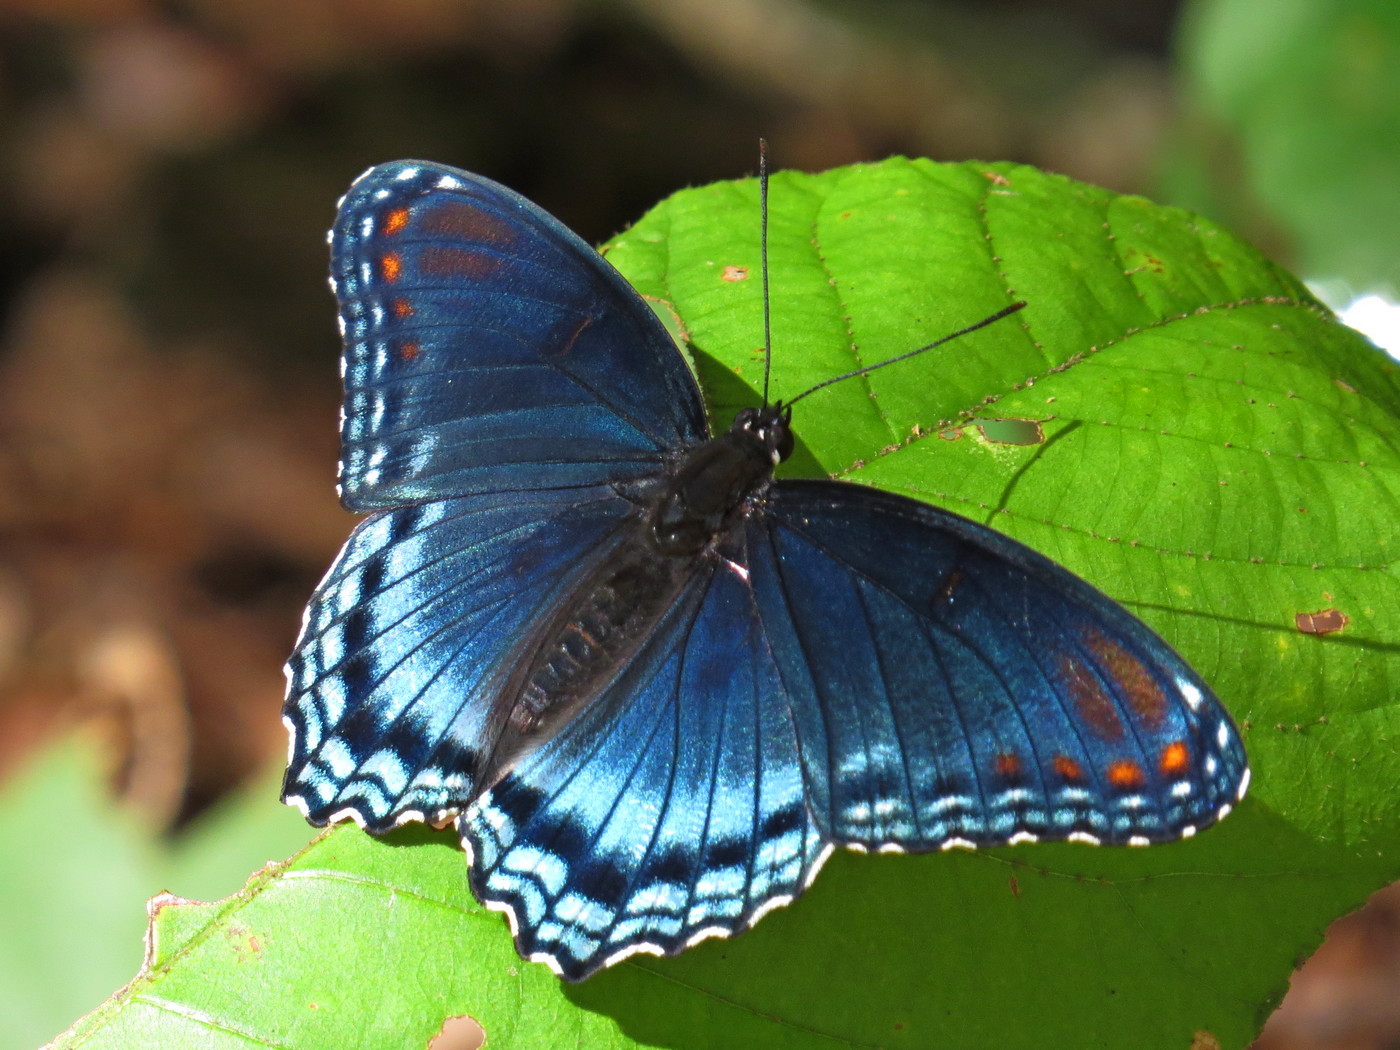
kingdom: Animalia
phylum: Arthropoda
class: Insecta
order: Lepidoptera
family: Nymphalidae
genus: Limenitis
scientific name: Limenitis astyanax
